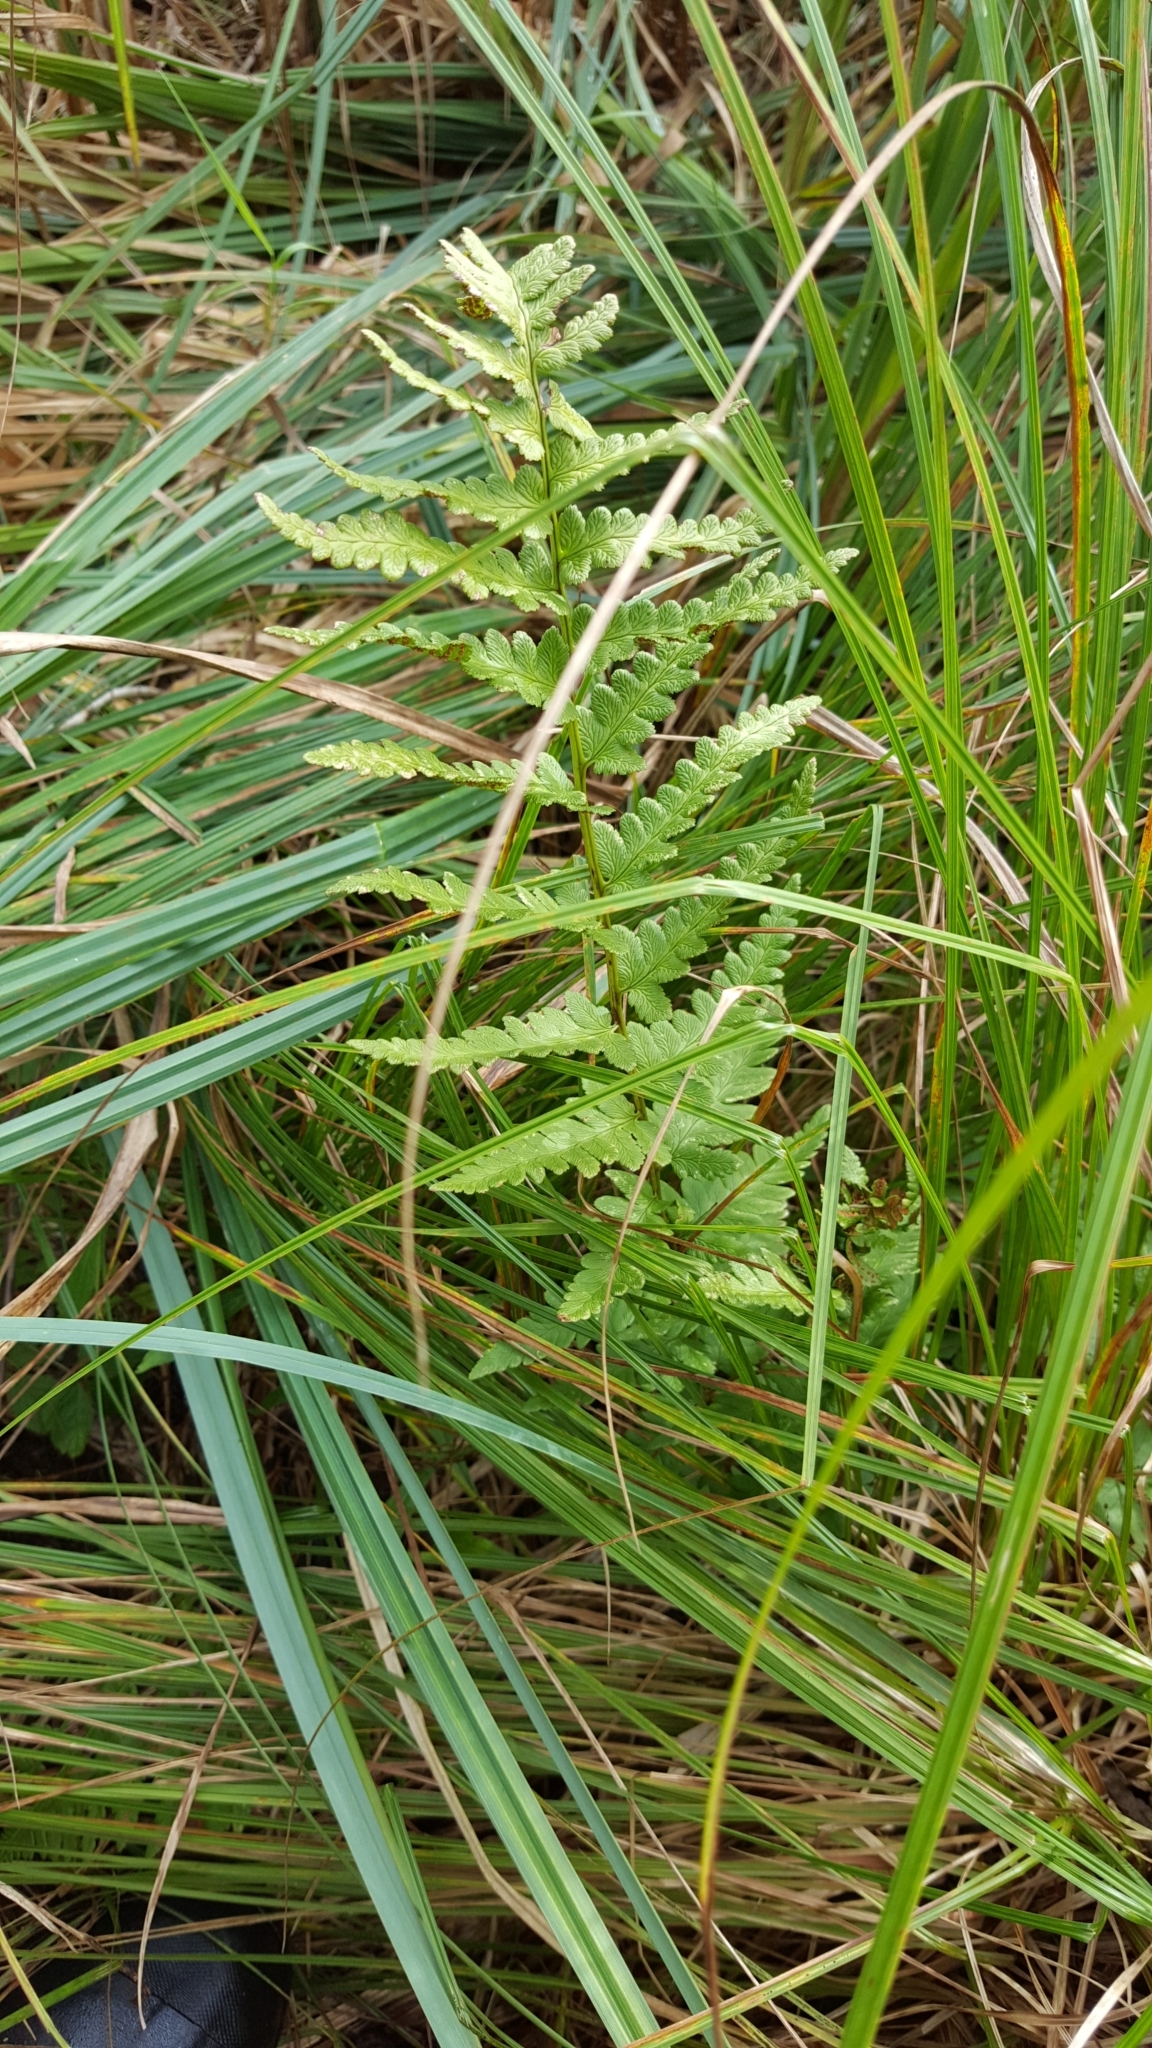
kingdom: Plantae
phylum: Tracheophyta
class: Polypodiopsida
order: Polypodiales
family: Dryopteridaceae
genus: Dryopteris
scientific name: Dryopteris cristata
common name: Crested wood fern
